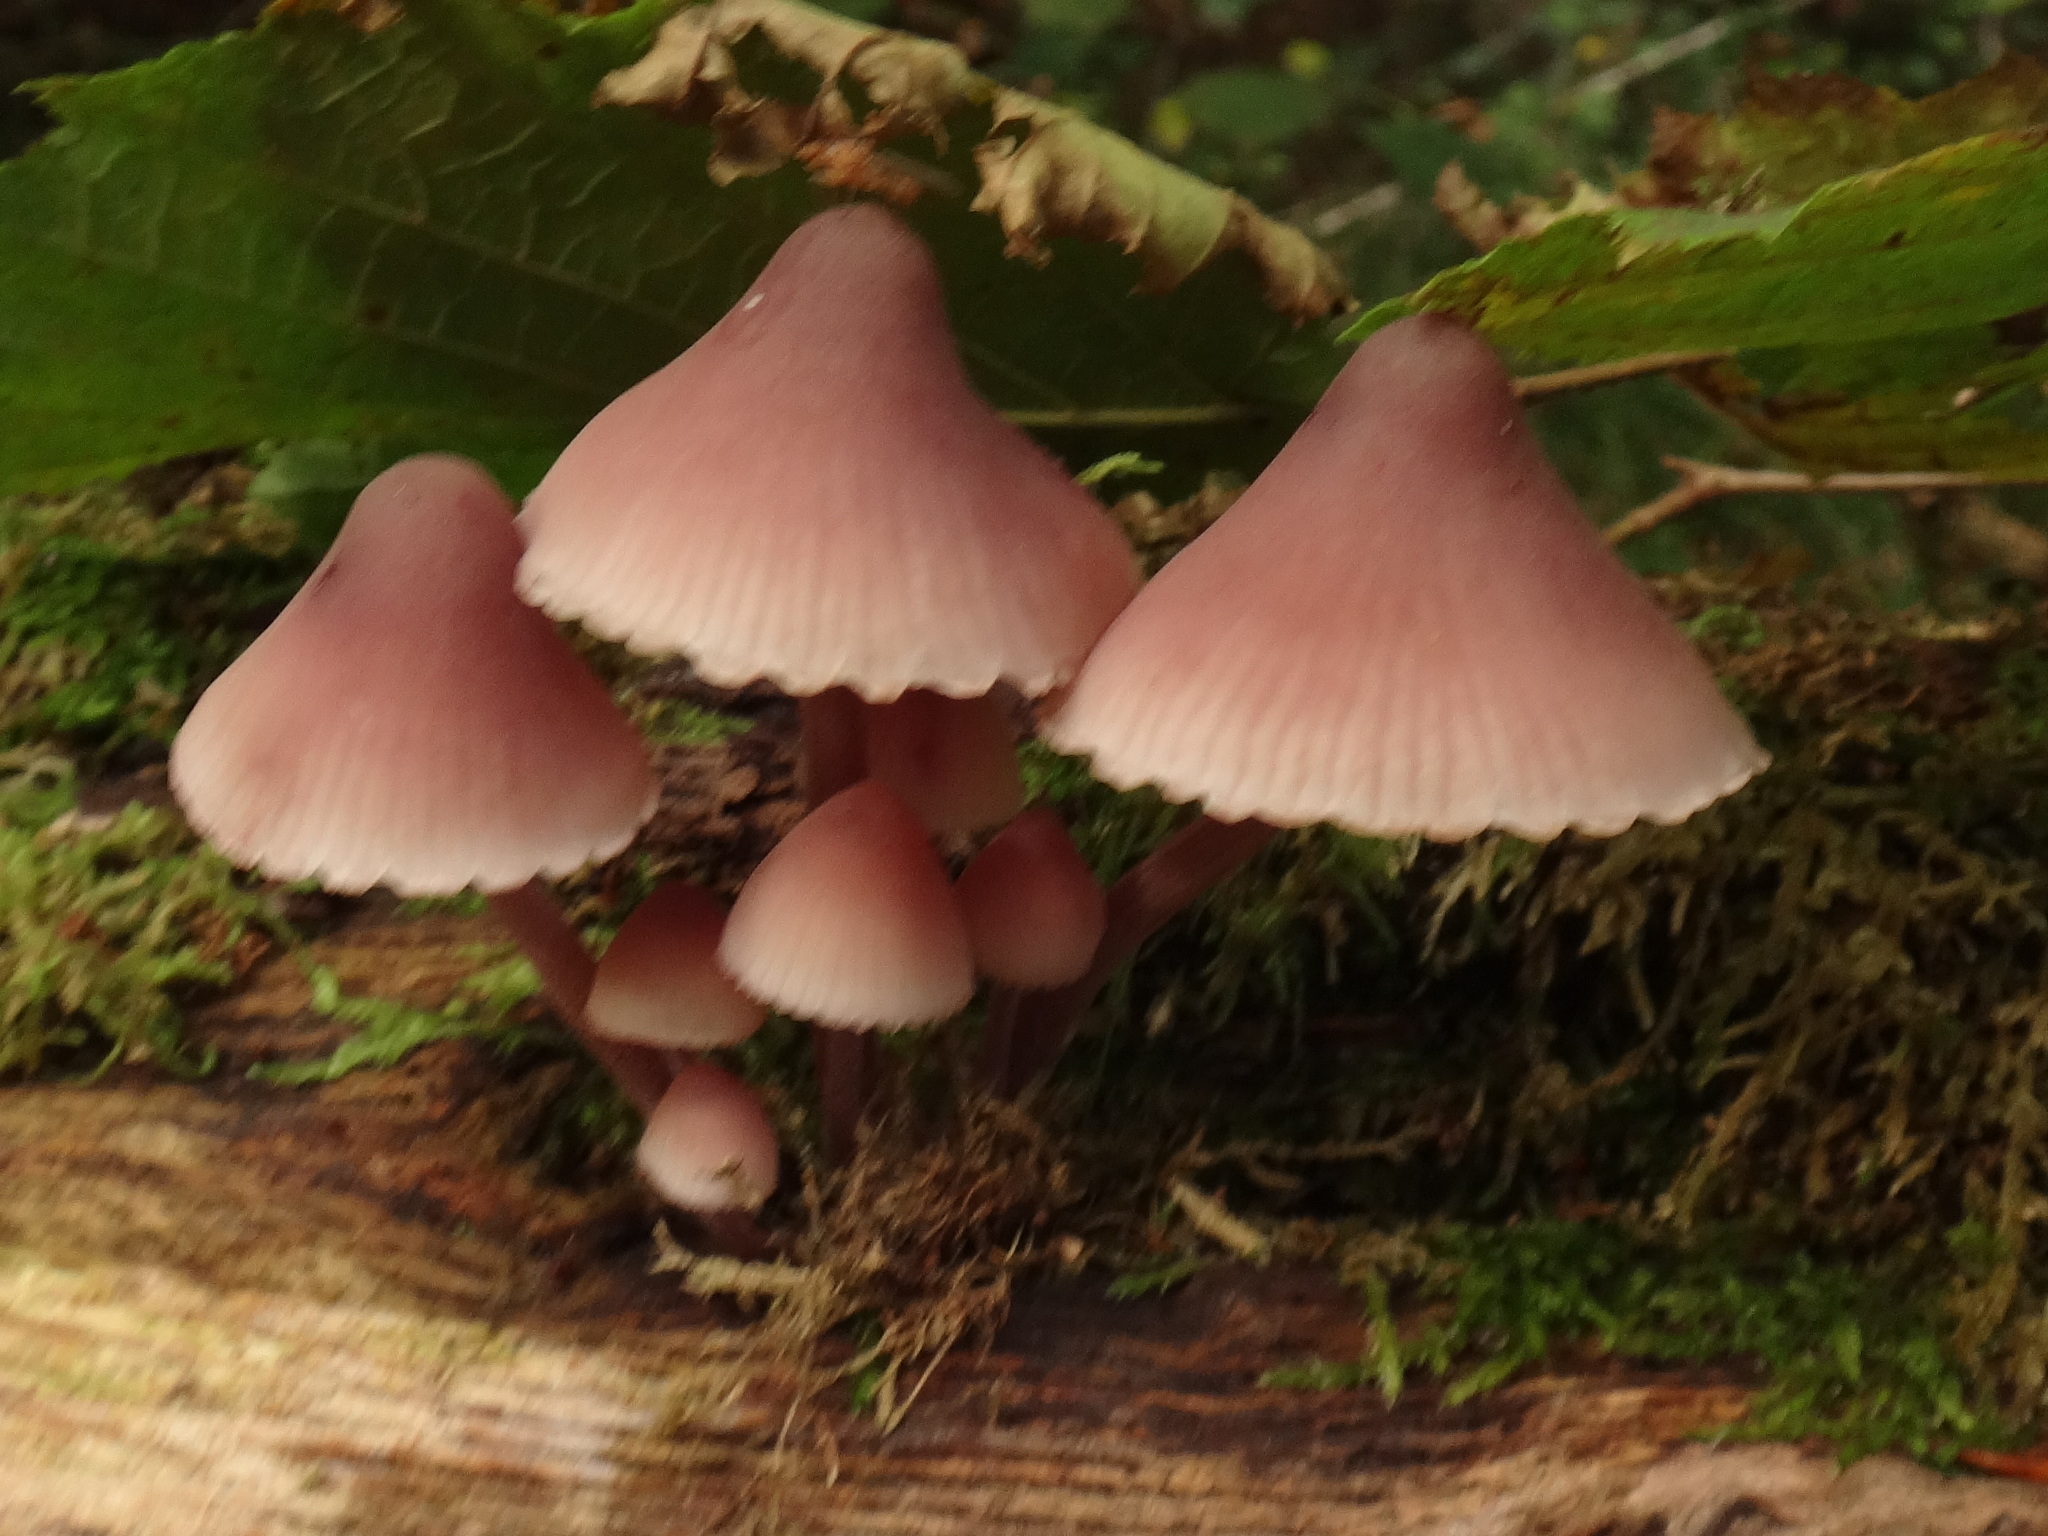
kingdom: Fungi
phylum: Basidiomycota
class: Agaricomycetes
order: Agaricales
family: Mycenaceae
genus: Mycena
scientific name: Mycena haematopus
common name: Burgundydrop bonnet
